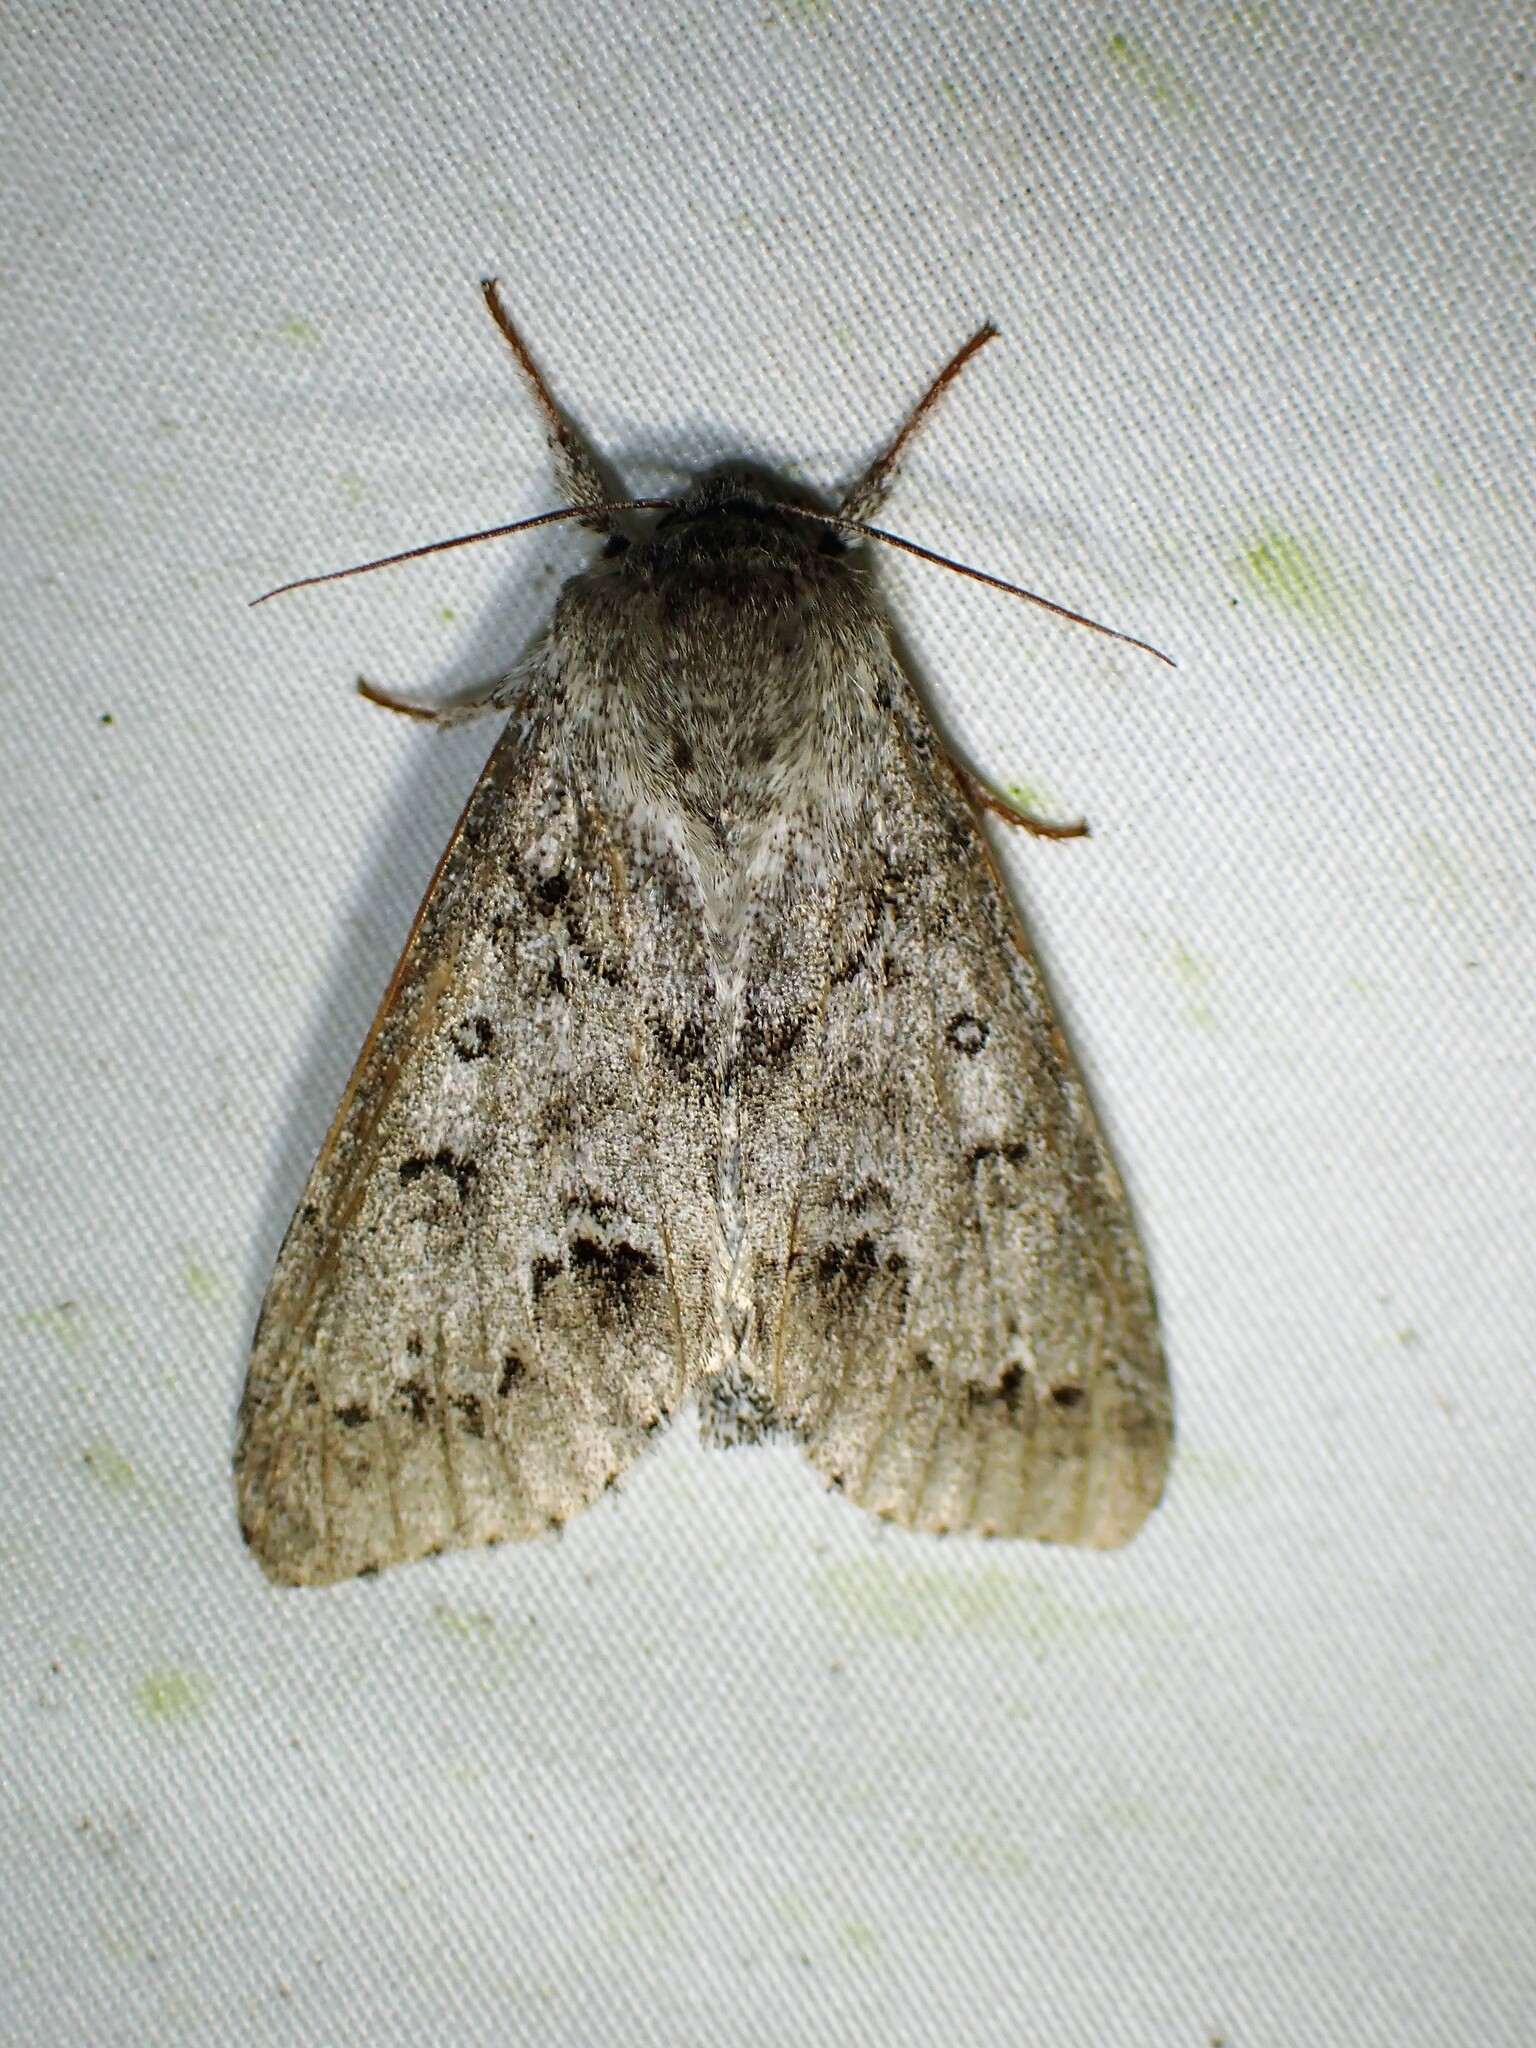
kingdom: Animalia
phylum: Arthropoda
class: Insecta
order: Lepidoptera
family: Noctuidae
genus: Acronicta
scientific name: Acronicta insita
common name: Large gray dagger
